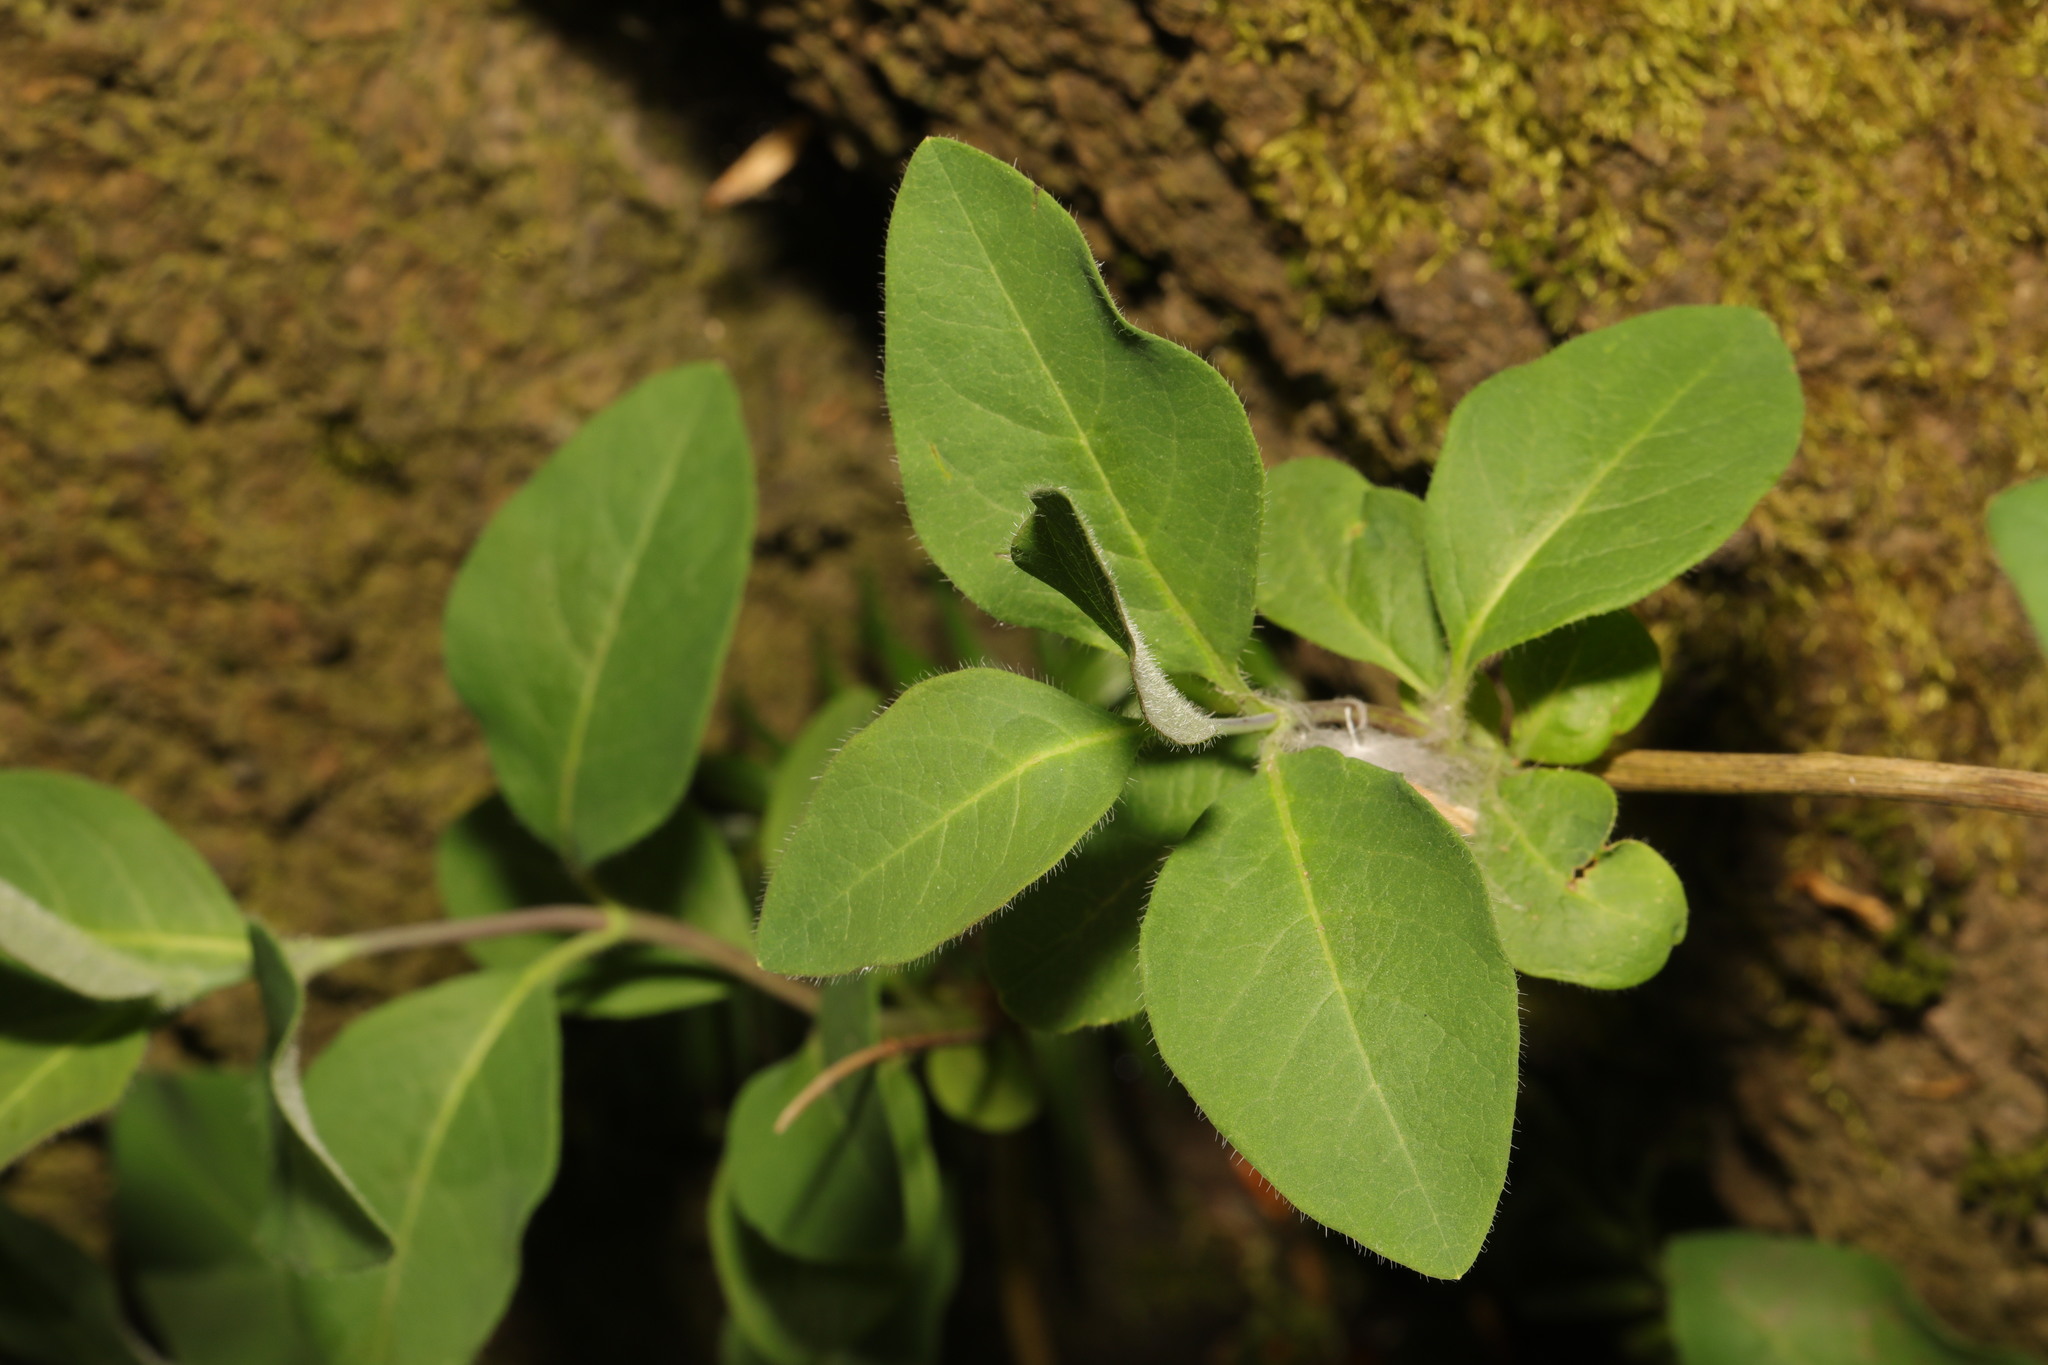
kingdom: Plantae
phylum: Tracheophyta
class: Magnoliopsida
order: Dipsacales
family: Caprifoliaceae
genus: Lonicera
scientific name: Lonicera periclymenum
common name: European honeysuckle
